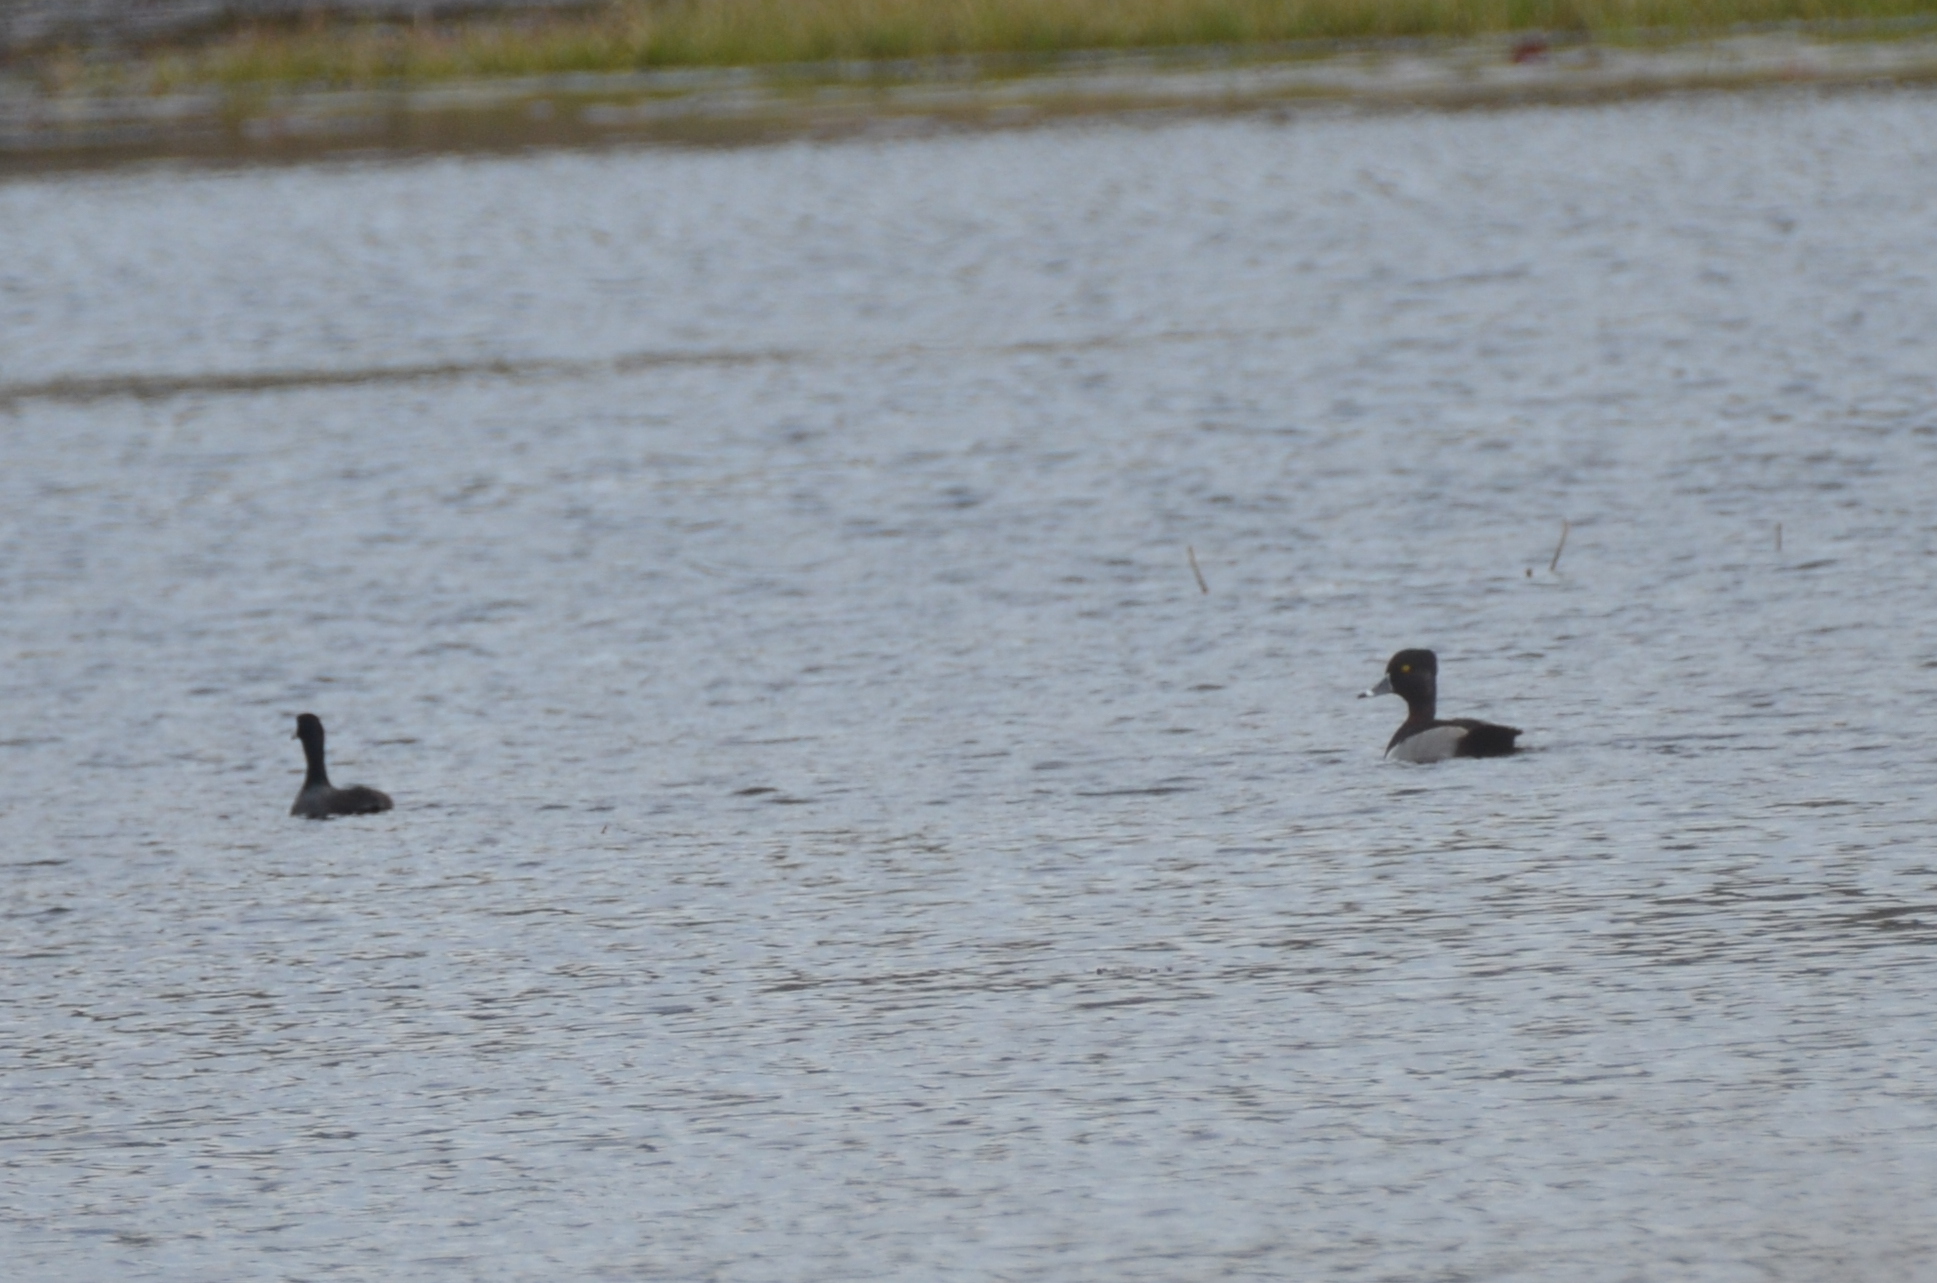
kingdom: Animalia
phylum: Chordata
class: Aves
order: Anseriformes
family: Anatidae
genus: Aythya
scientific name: Aythya collaris
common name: Ring-necked duck
